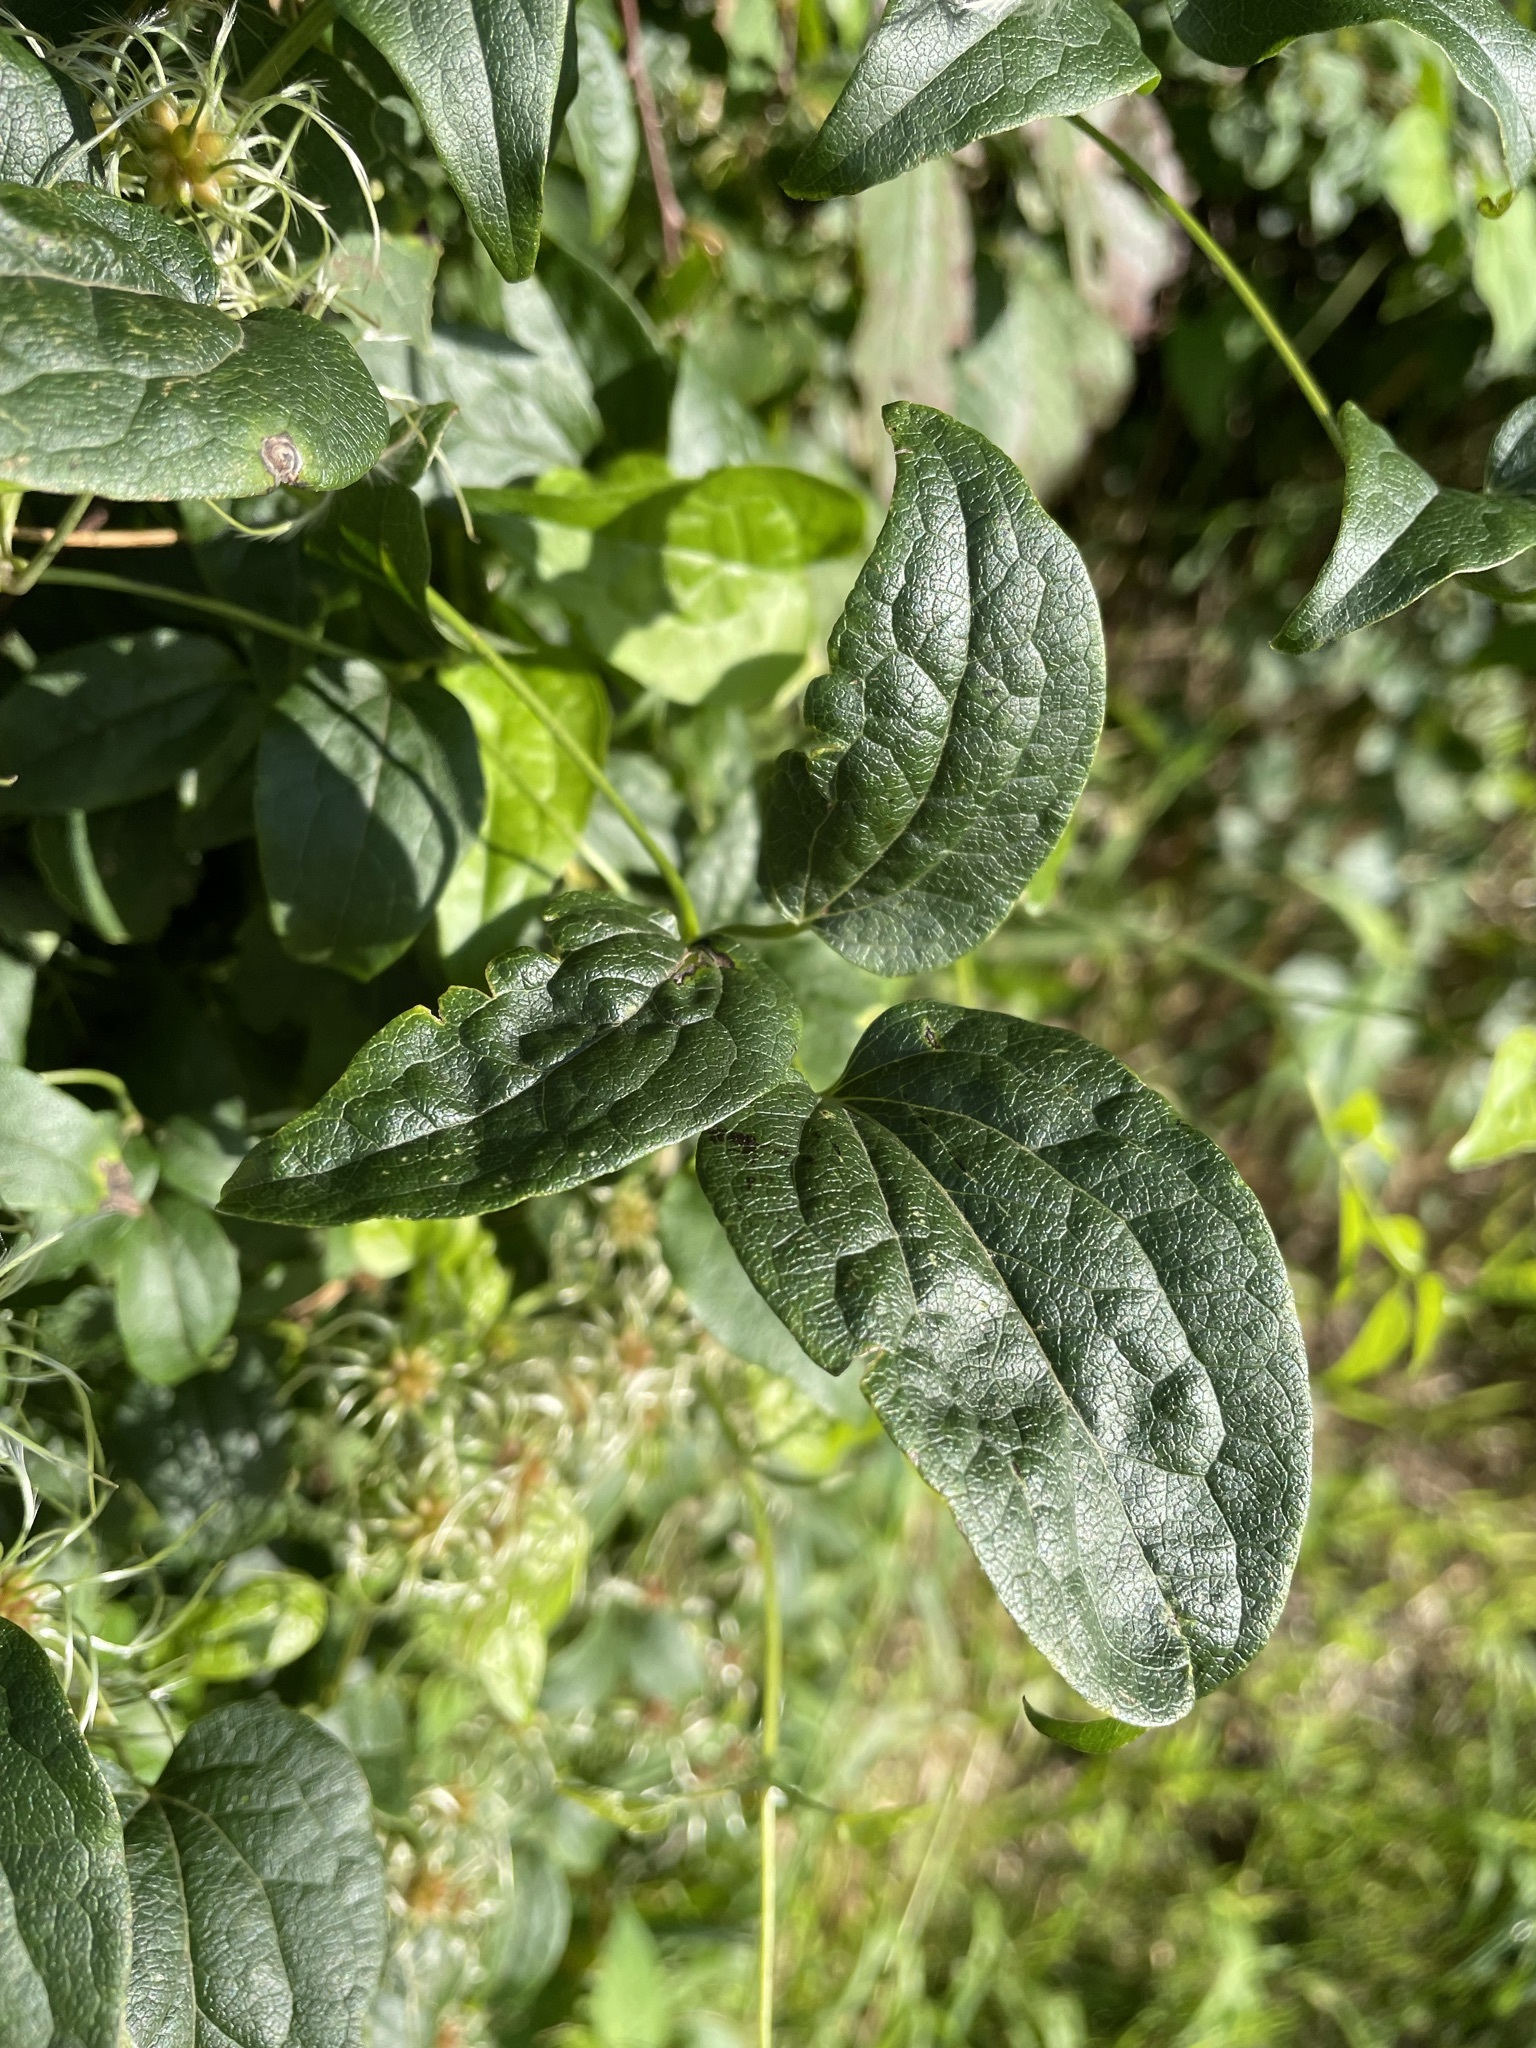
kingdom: Plantae
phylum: Tracheophyta
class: Magnoliopsida
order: Ranunculales
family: Ranunculaceae
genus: Clematis
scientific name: Clematis vitalba
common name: Evergreen clematis
